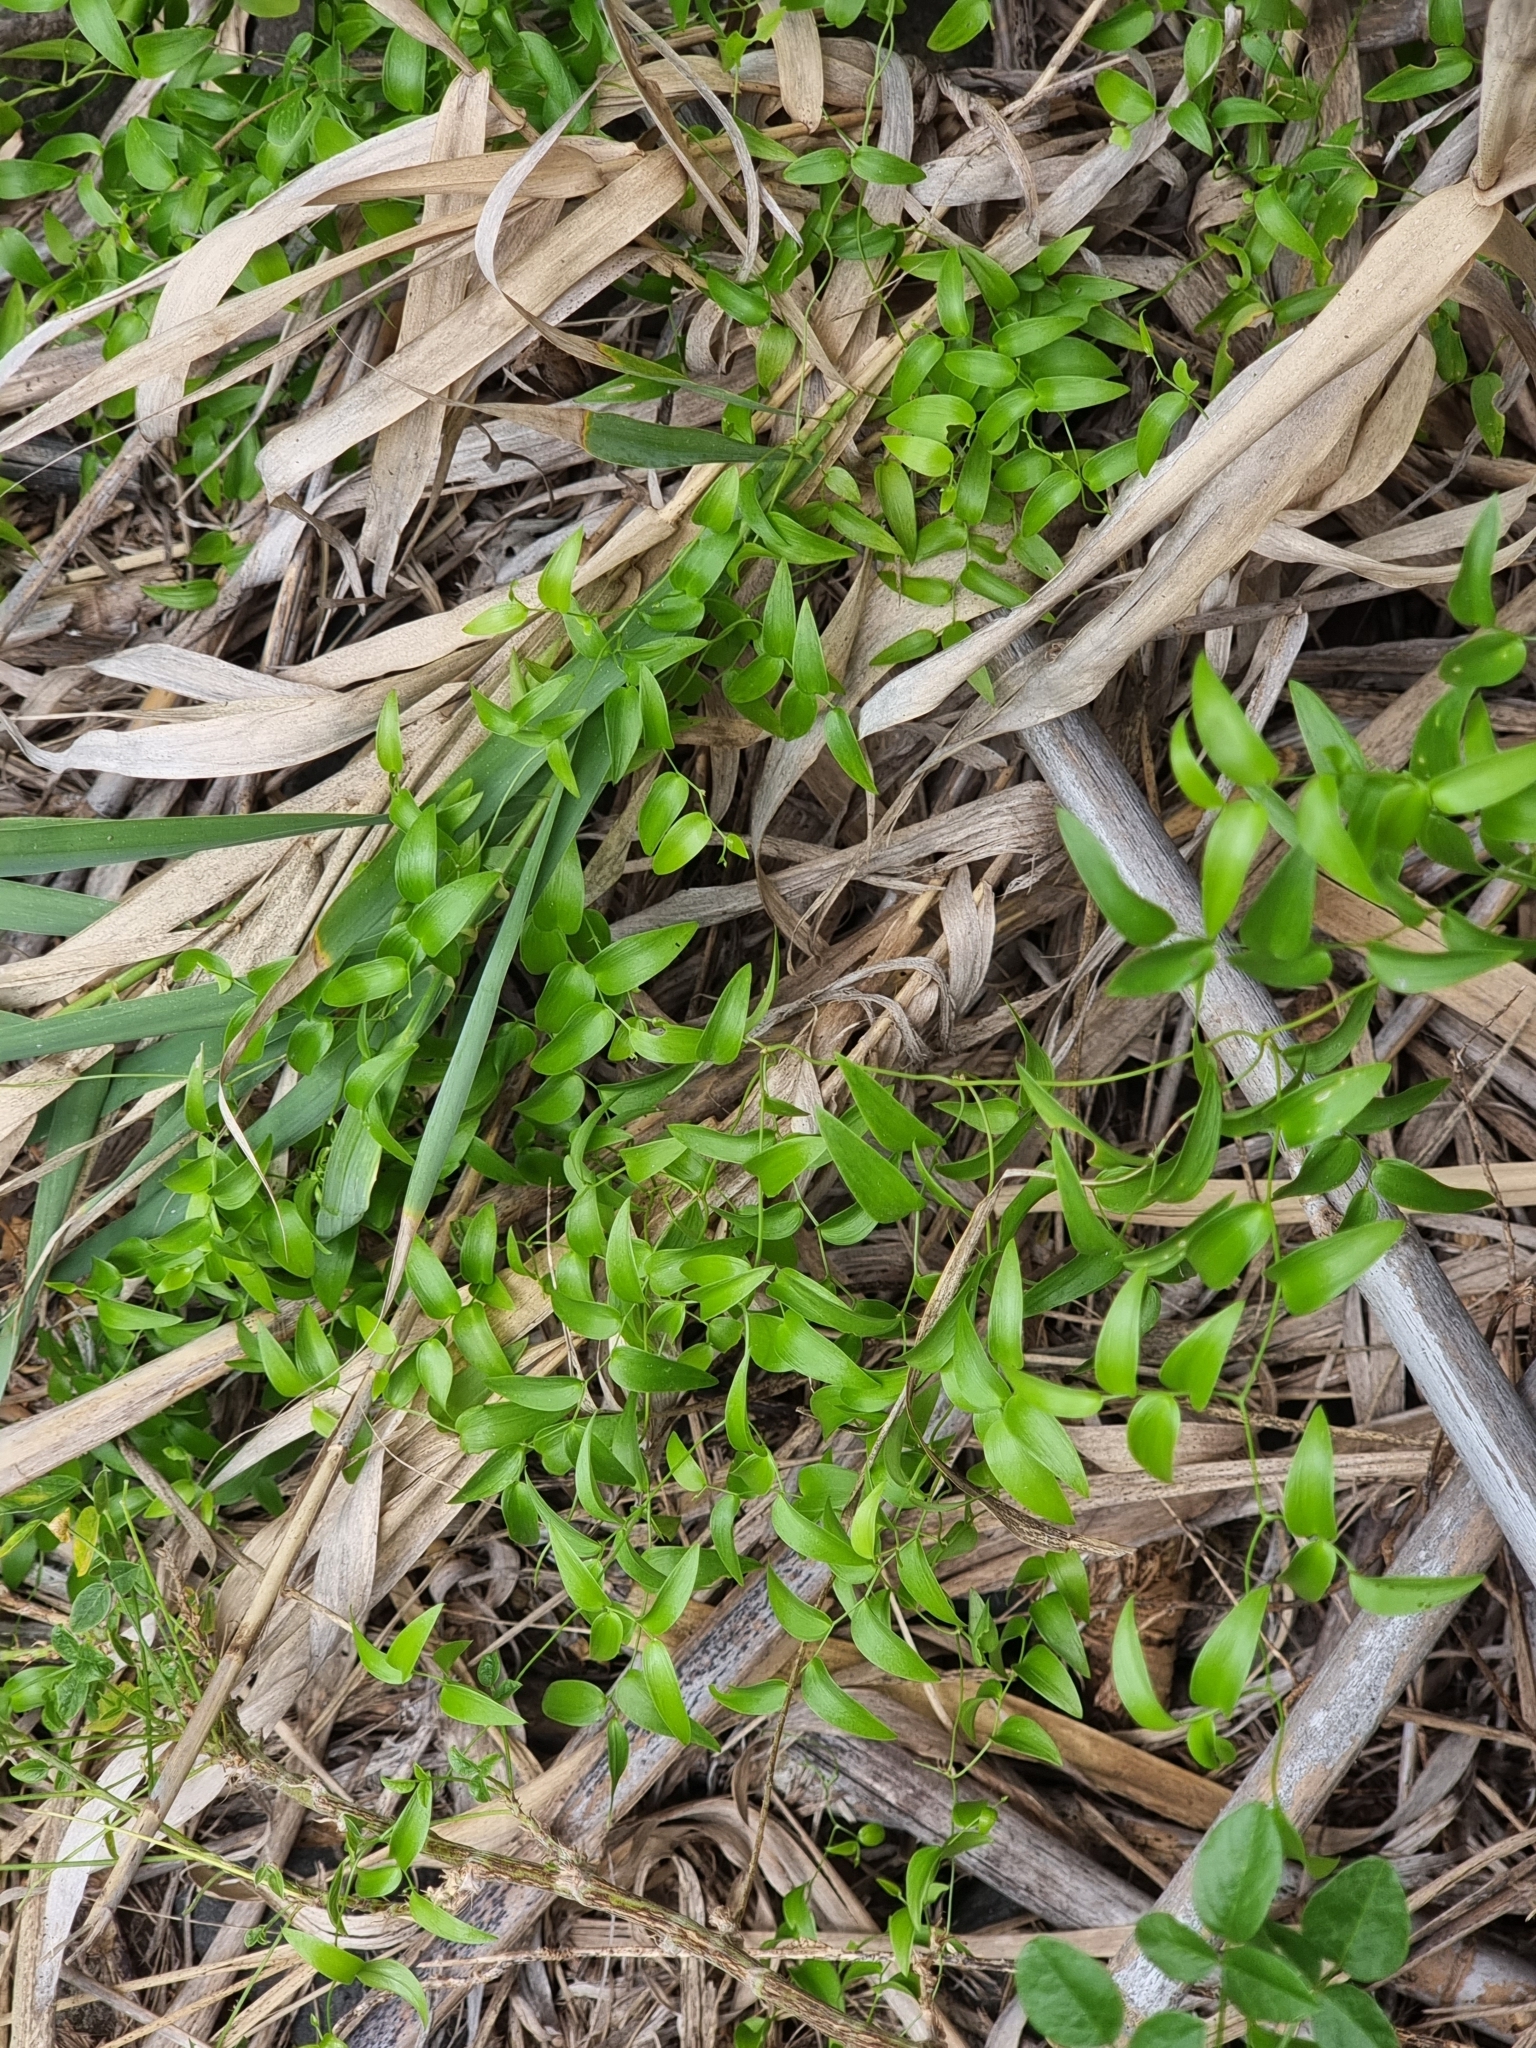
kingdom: Plantae
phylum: Tracheophyta
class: Liliopsida
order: Asparagales
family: Asparagaceae
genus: Asparagus
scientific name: Asparagus asparagoides
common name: African asparagus fern
